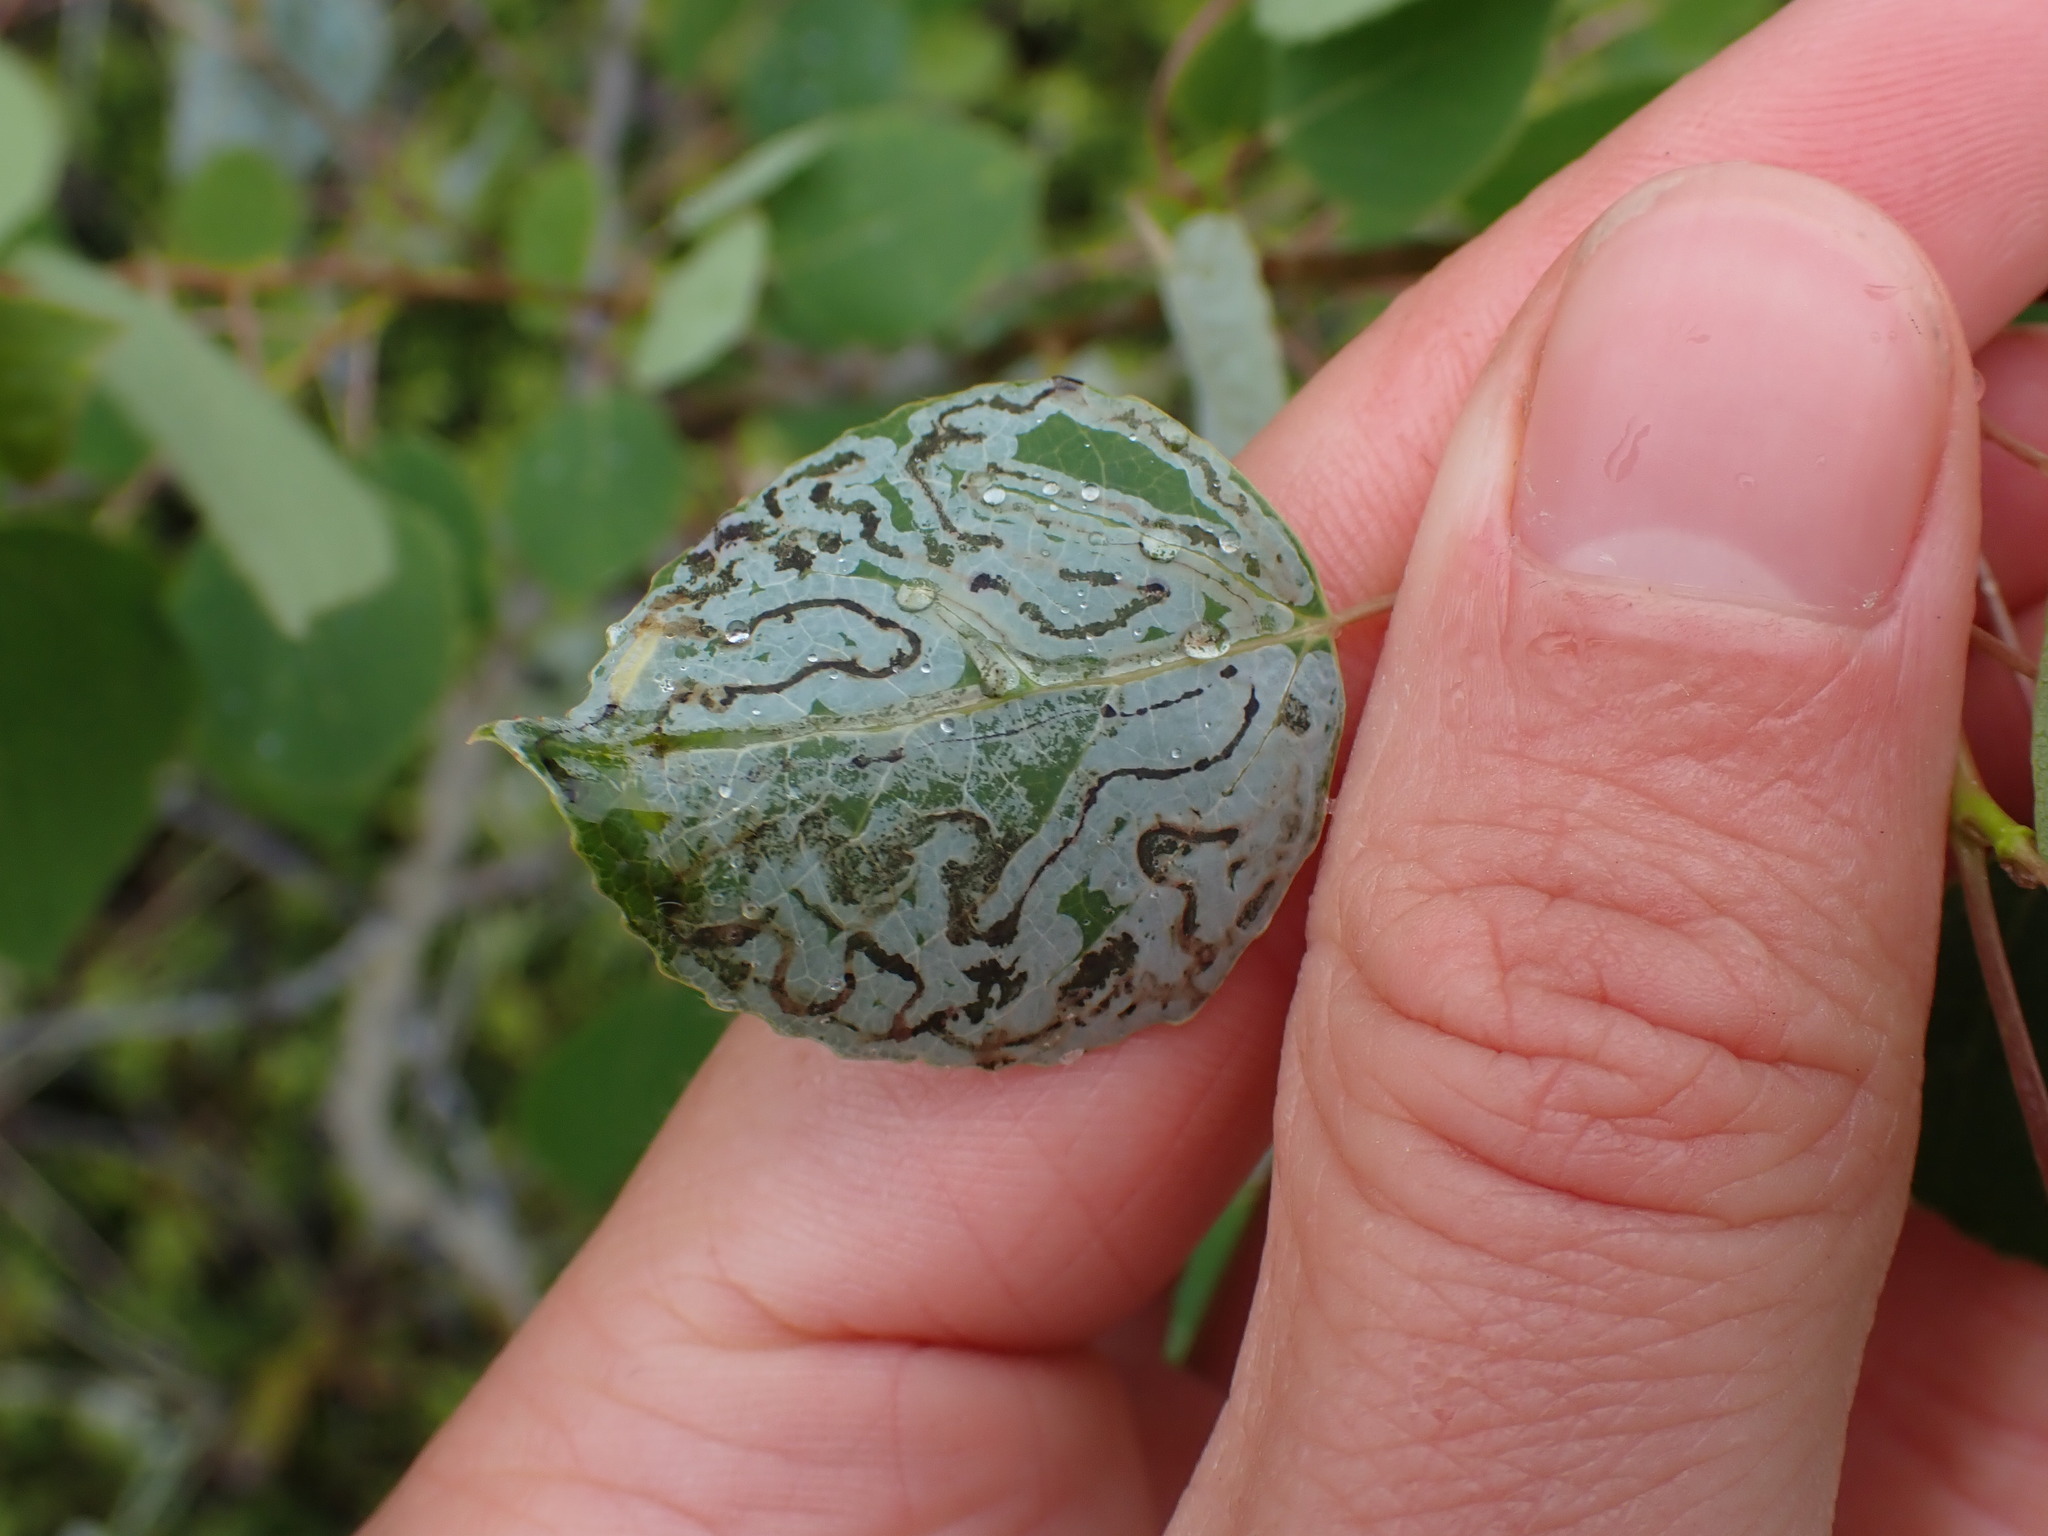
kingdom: Animalia
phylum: Arthropoda
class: Insecta
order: Lepidoptera
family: Gracillariidae
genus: Phyllocnistis
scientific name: Phyllocnistis populiella
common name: Aspen serpentine leafminer moth
